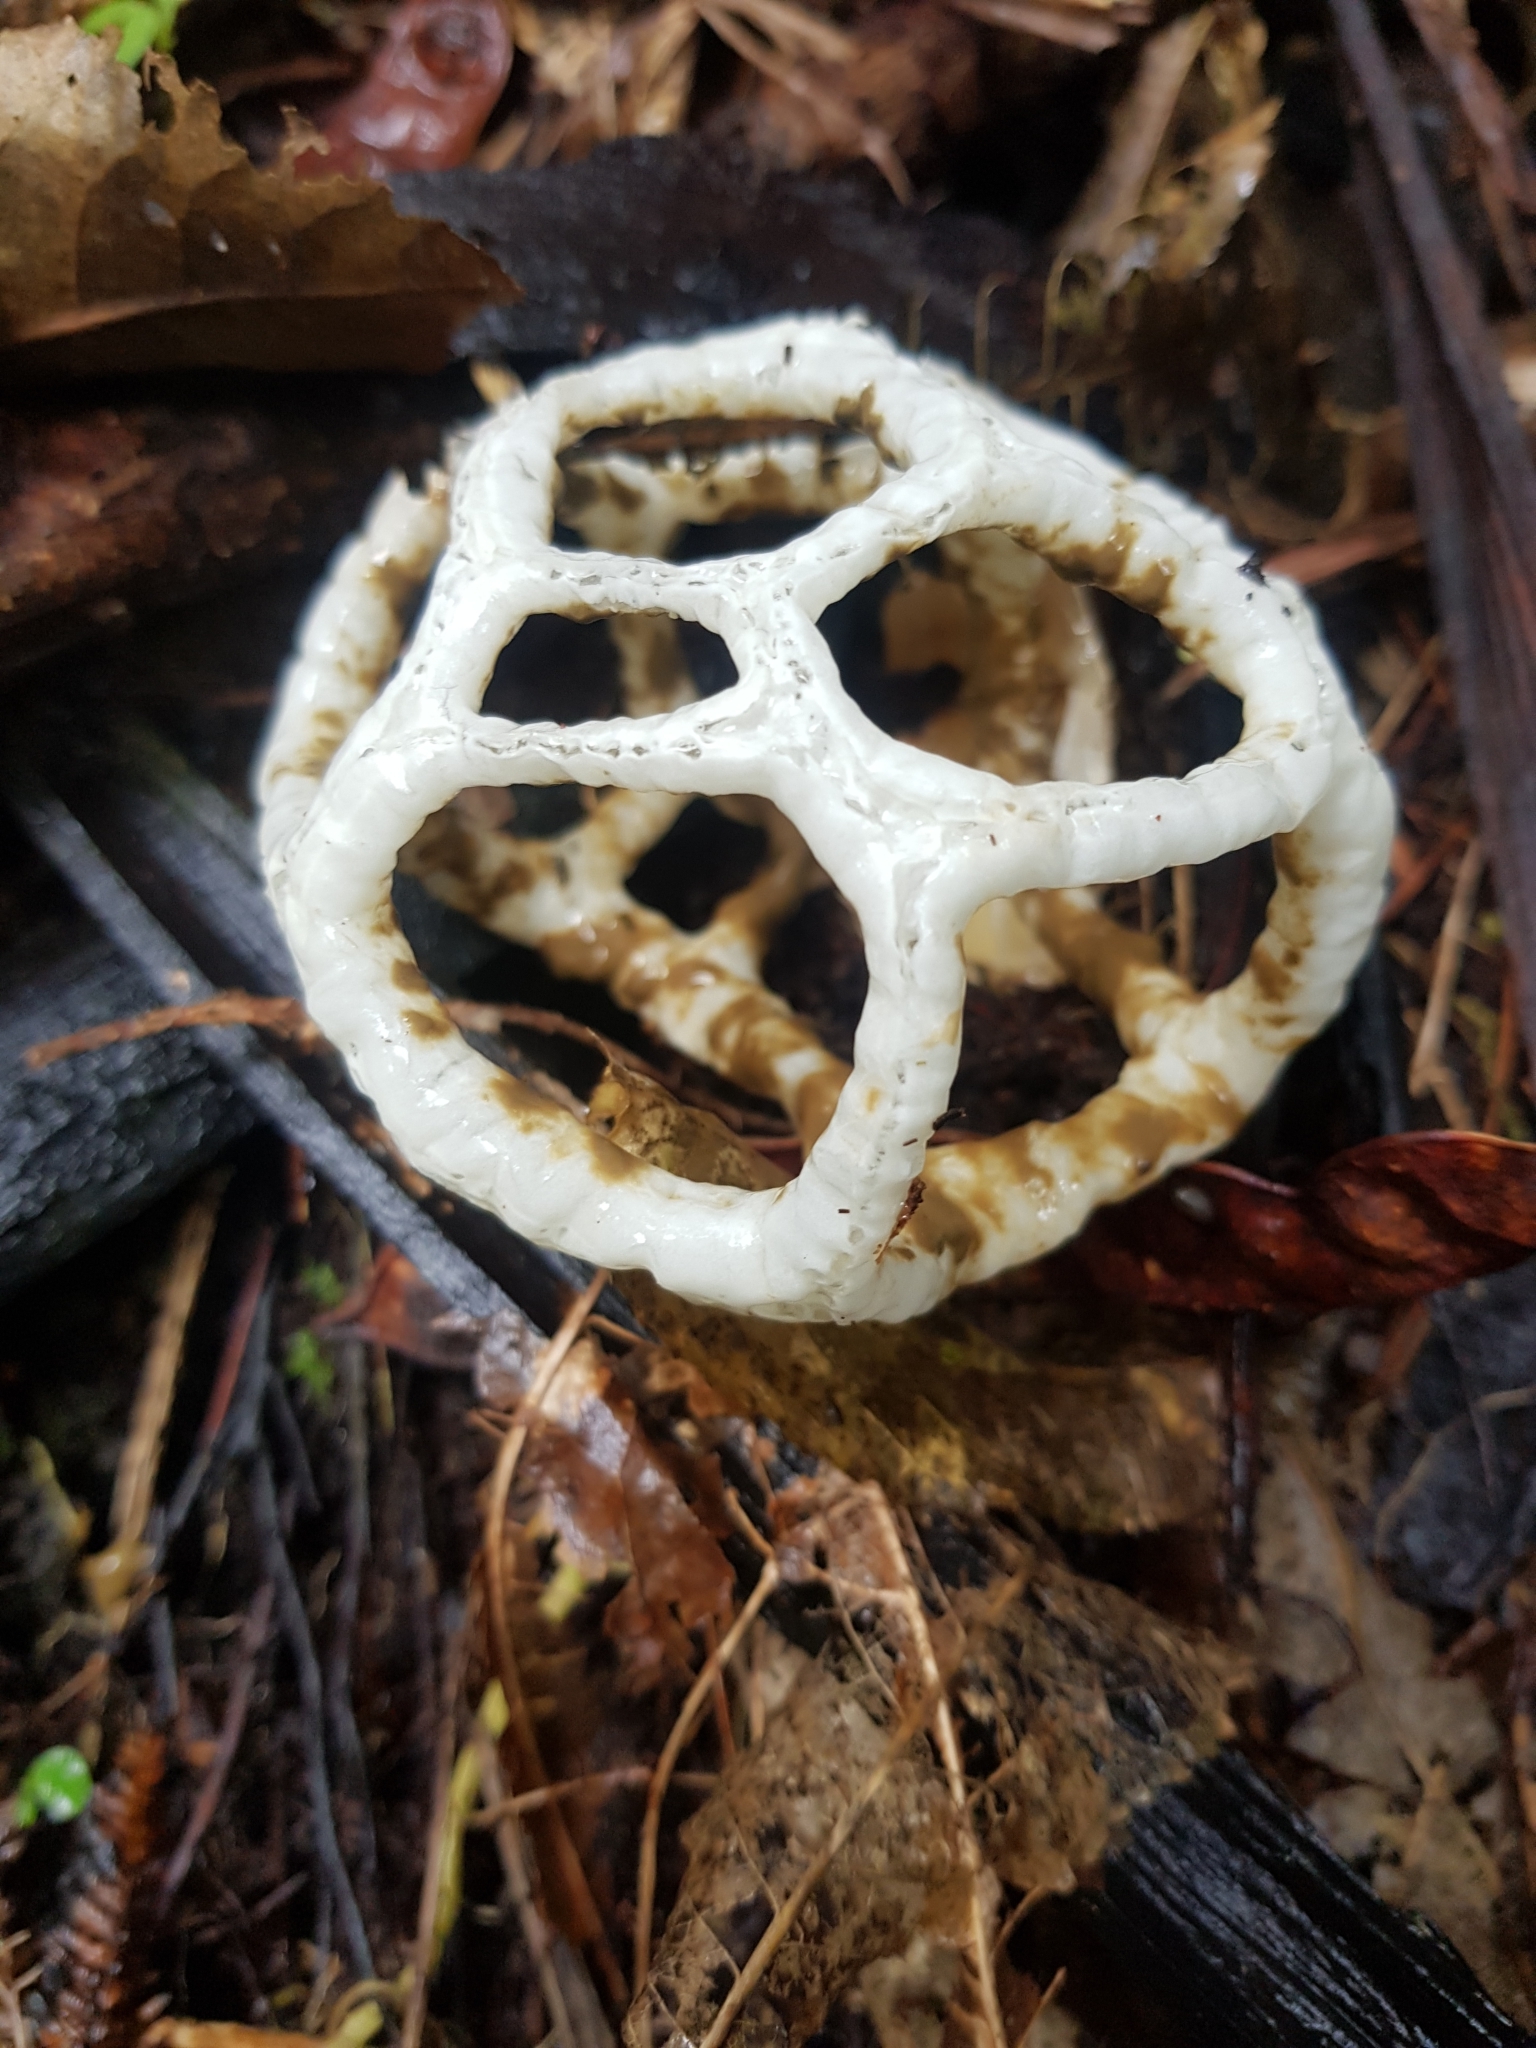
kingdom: Fungi
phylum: Basidiomycota
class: Agaricomycetes
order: Phallales
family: Phallaceae
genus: Ileodictyon
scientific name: Ileodictyon cibarium
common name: Basket fungus
